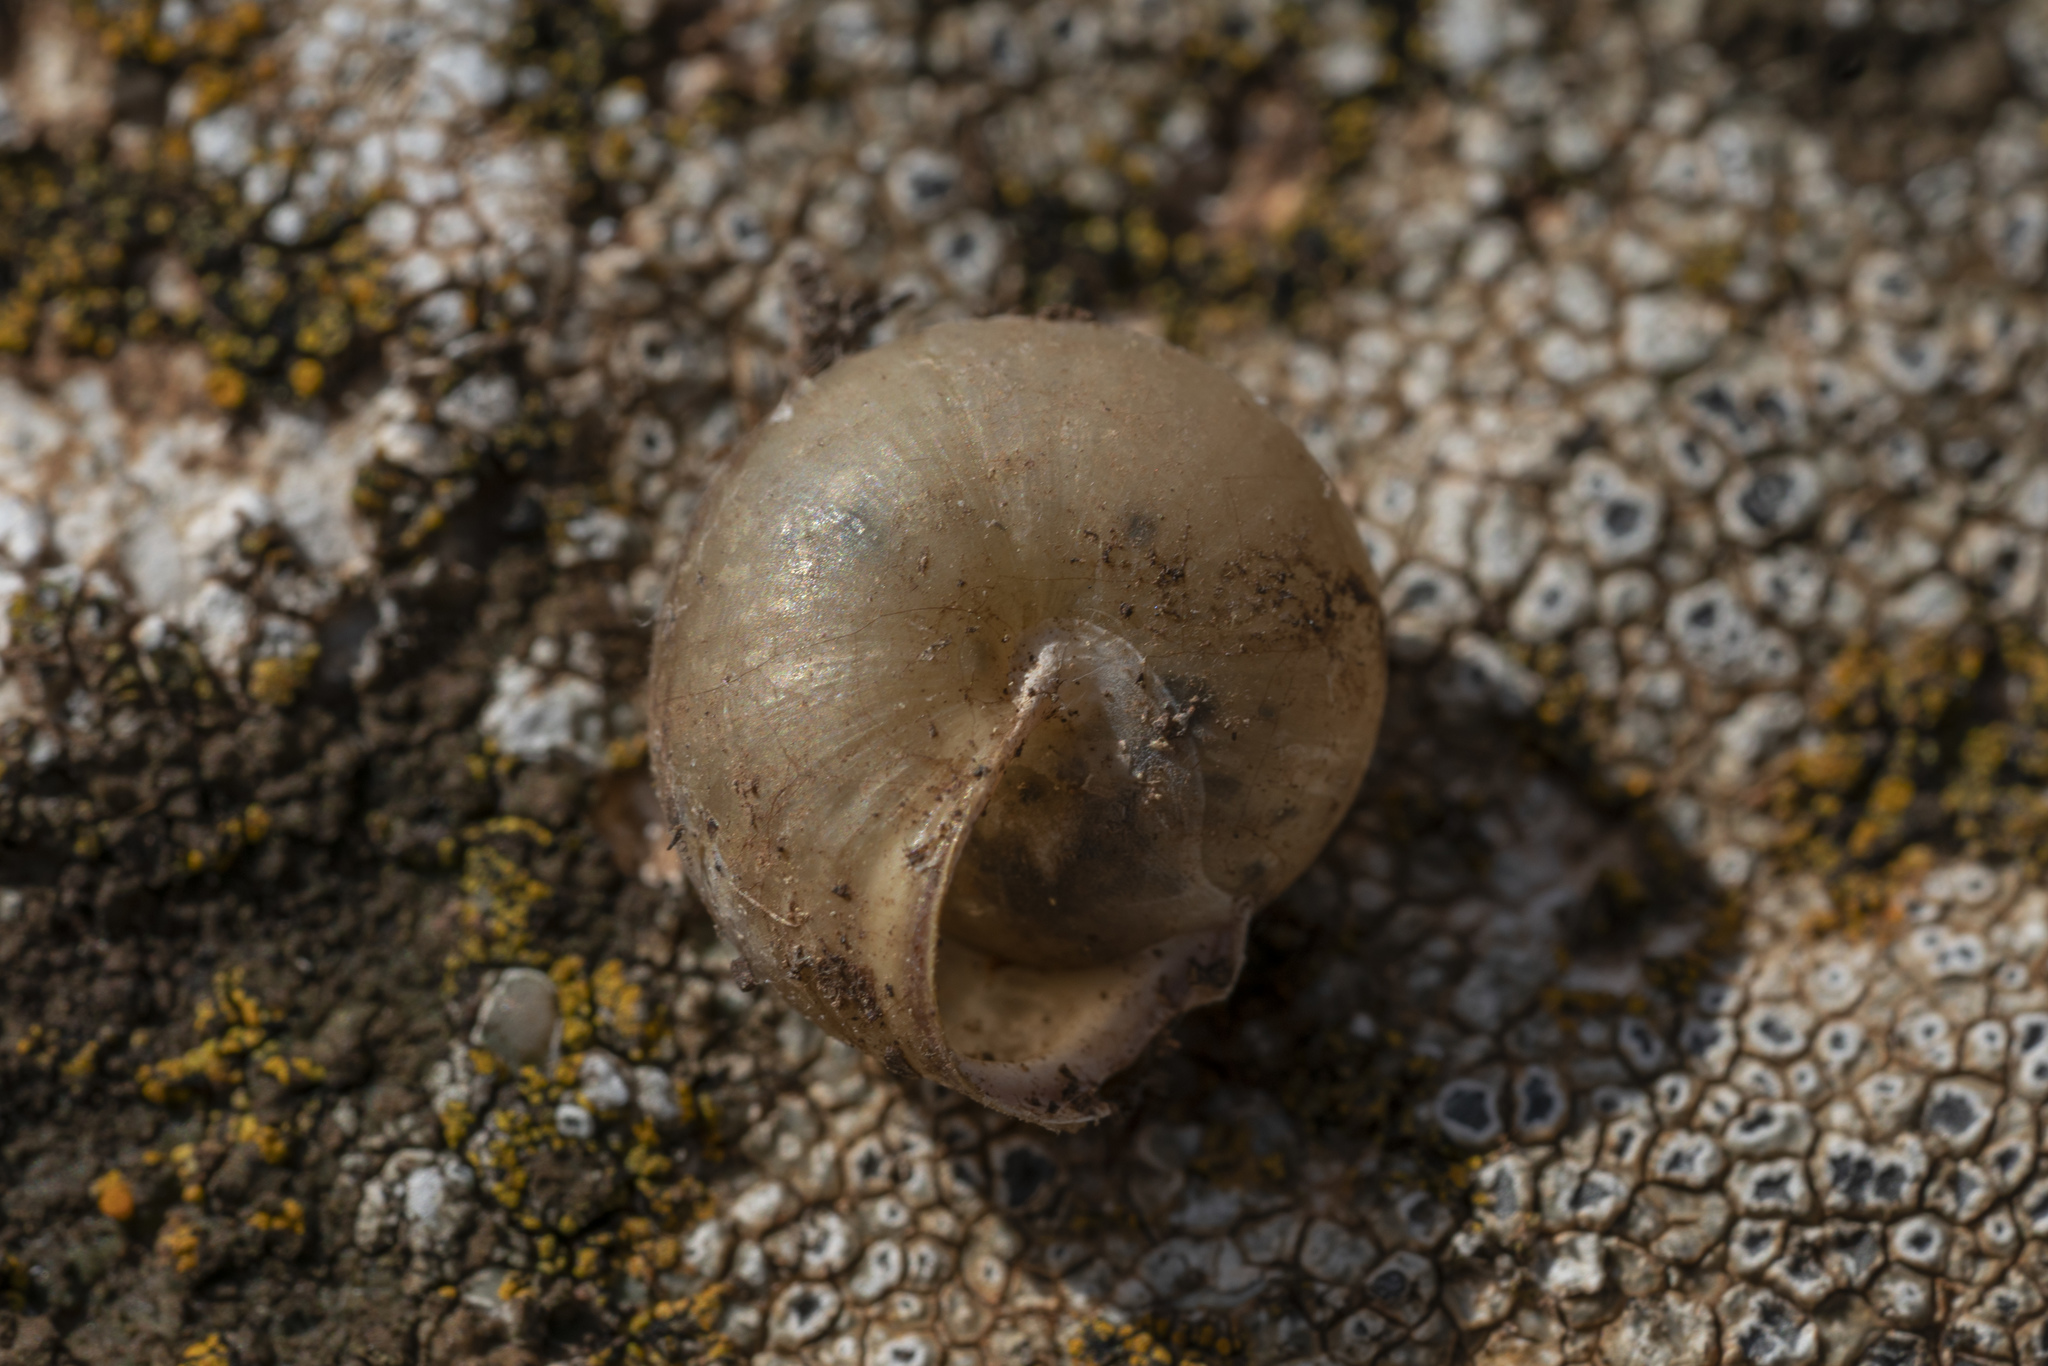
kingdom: Animalia
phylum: Mollusca
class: Gastropoda
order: Stylommatophora
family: Hygromiidae
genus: Monacha
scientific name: Monacha
